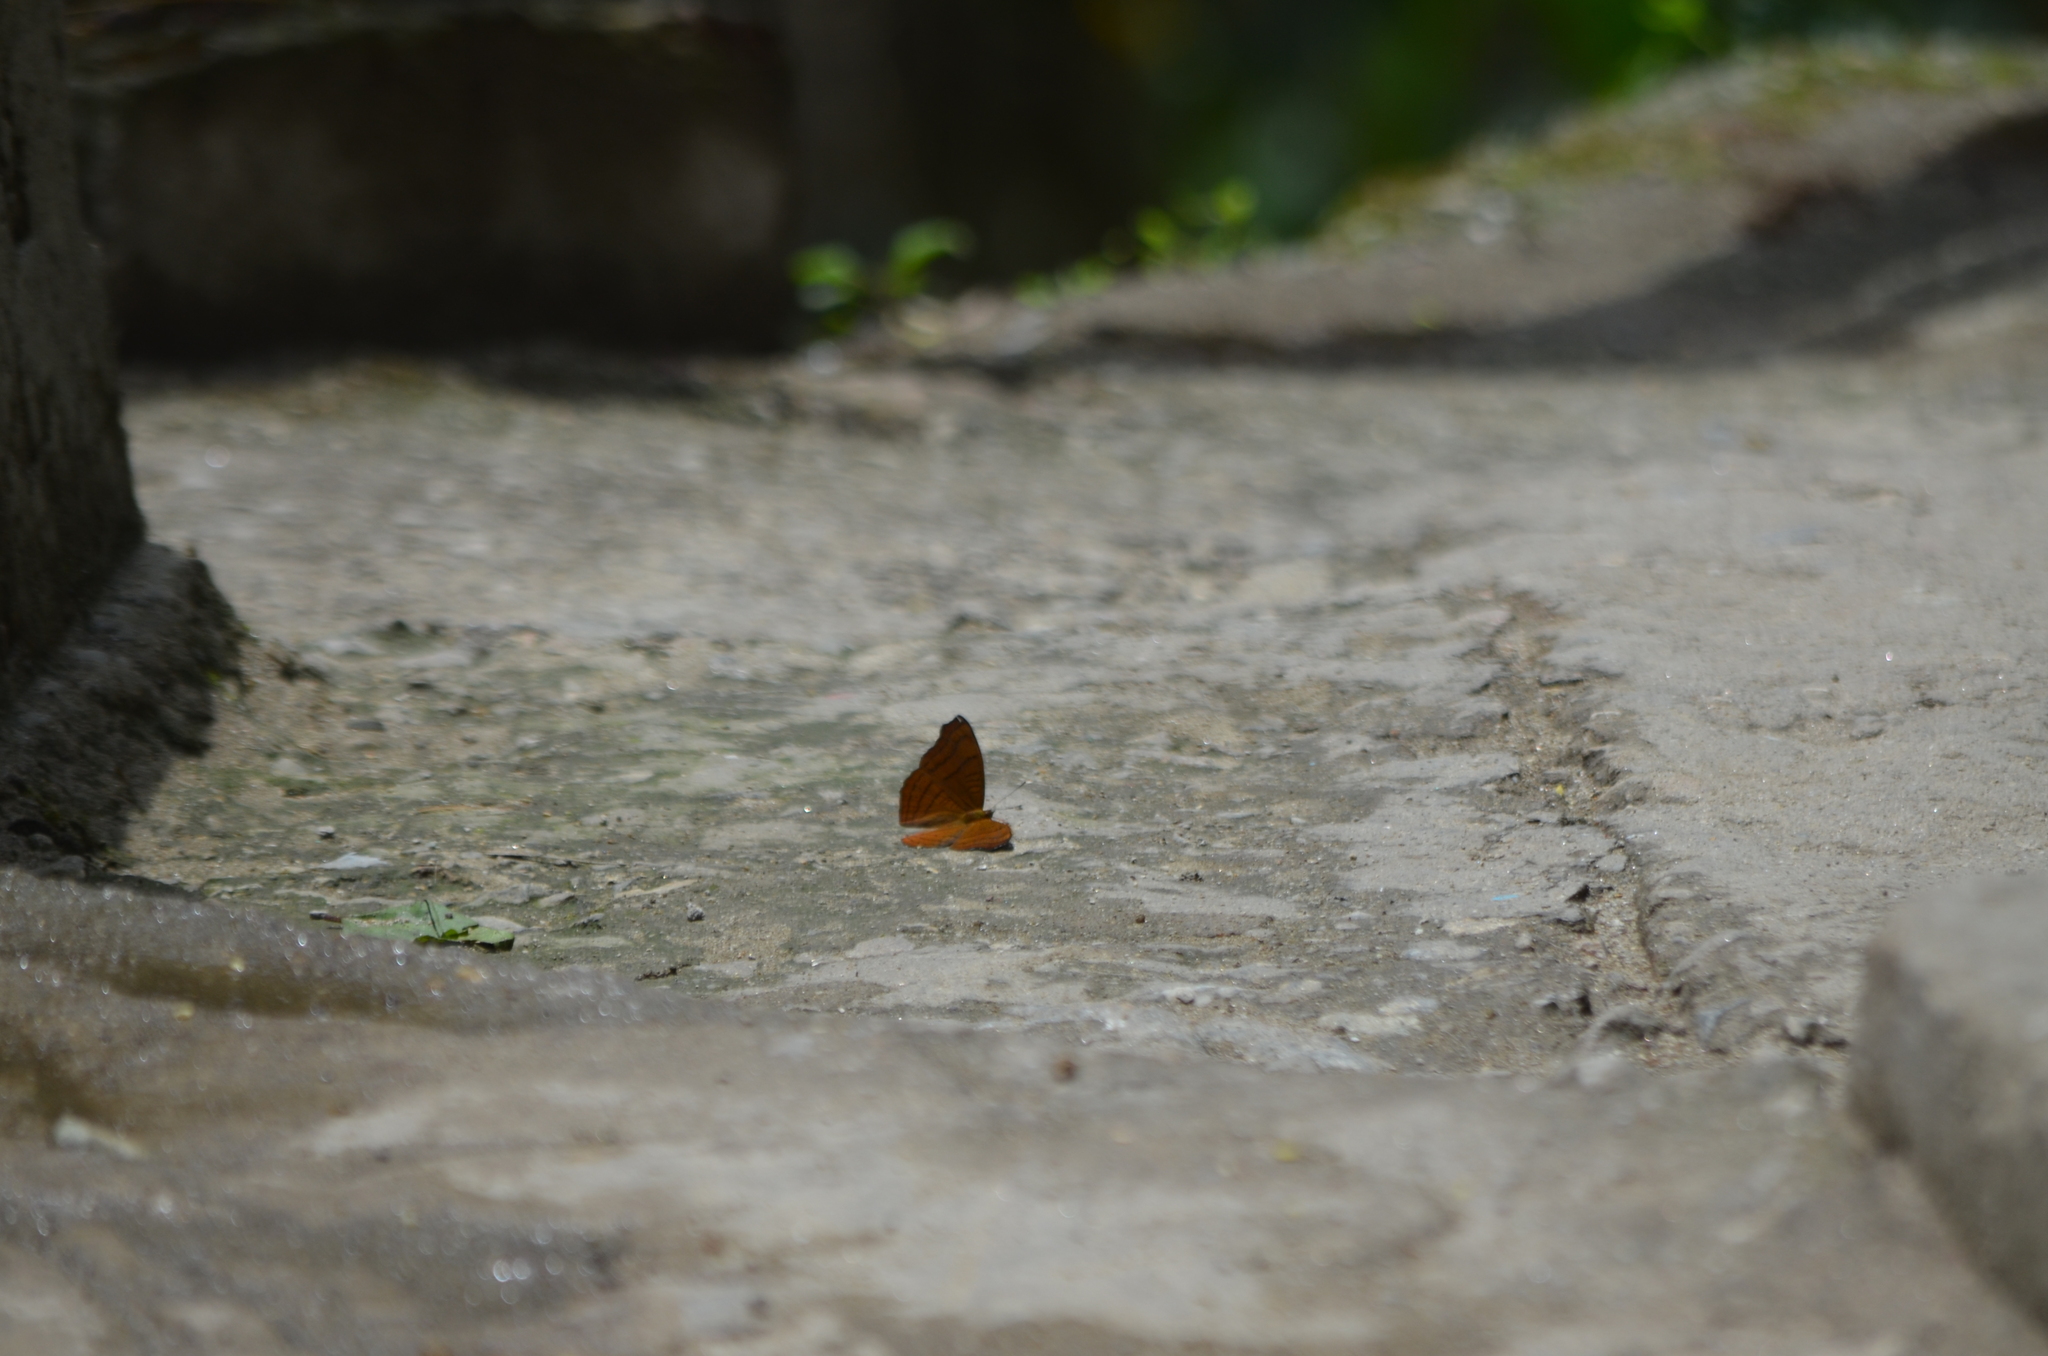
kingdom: Animalia
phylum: Arthropoda
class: Insecta
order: Lepidoptera
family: Nymphalidae
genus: Pseudergolis
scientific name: Pseudergolis wedah
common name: Tabby
